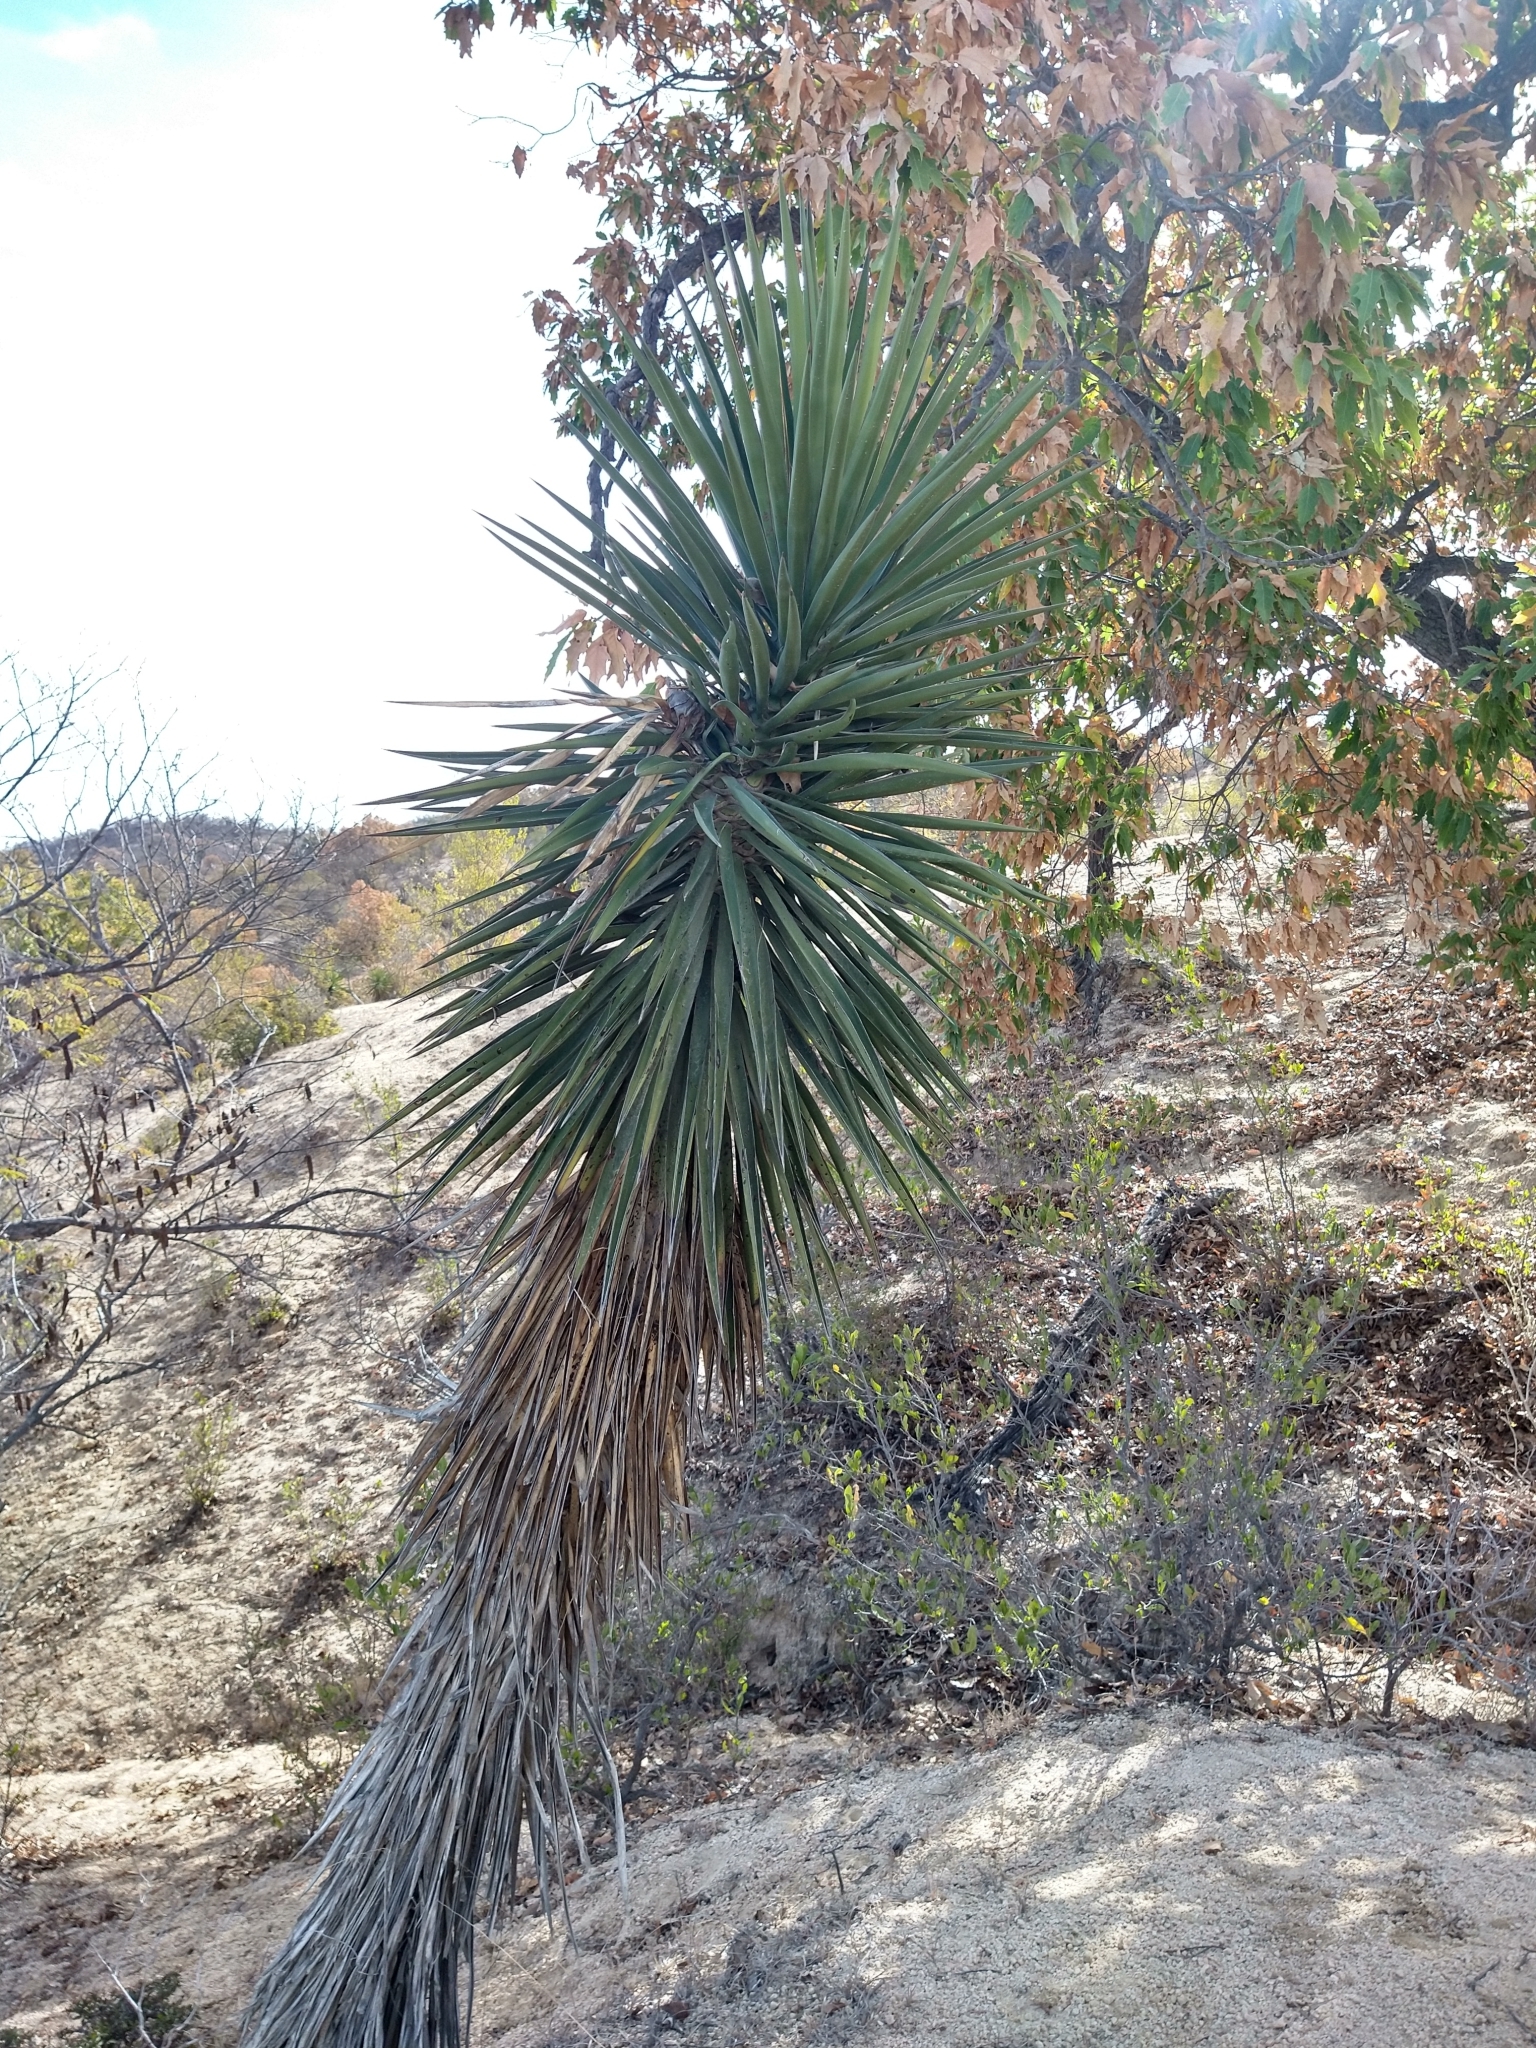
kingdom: Plantae
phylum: Tracheophyta
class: Liliopsida
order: Asparagales
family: Asparagaceae
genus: Yucca
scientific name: Yucca capensis
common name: Cape region yucca
